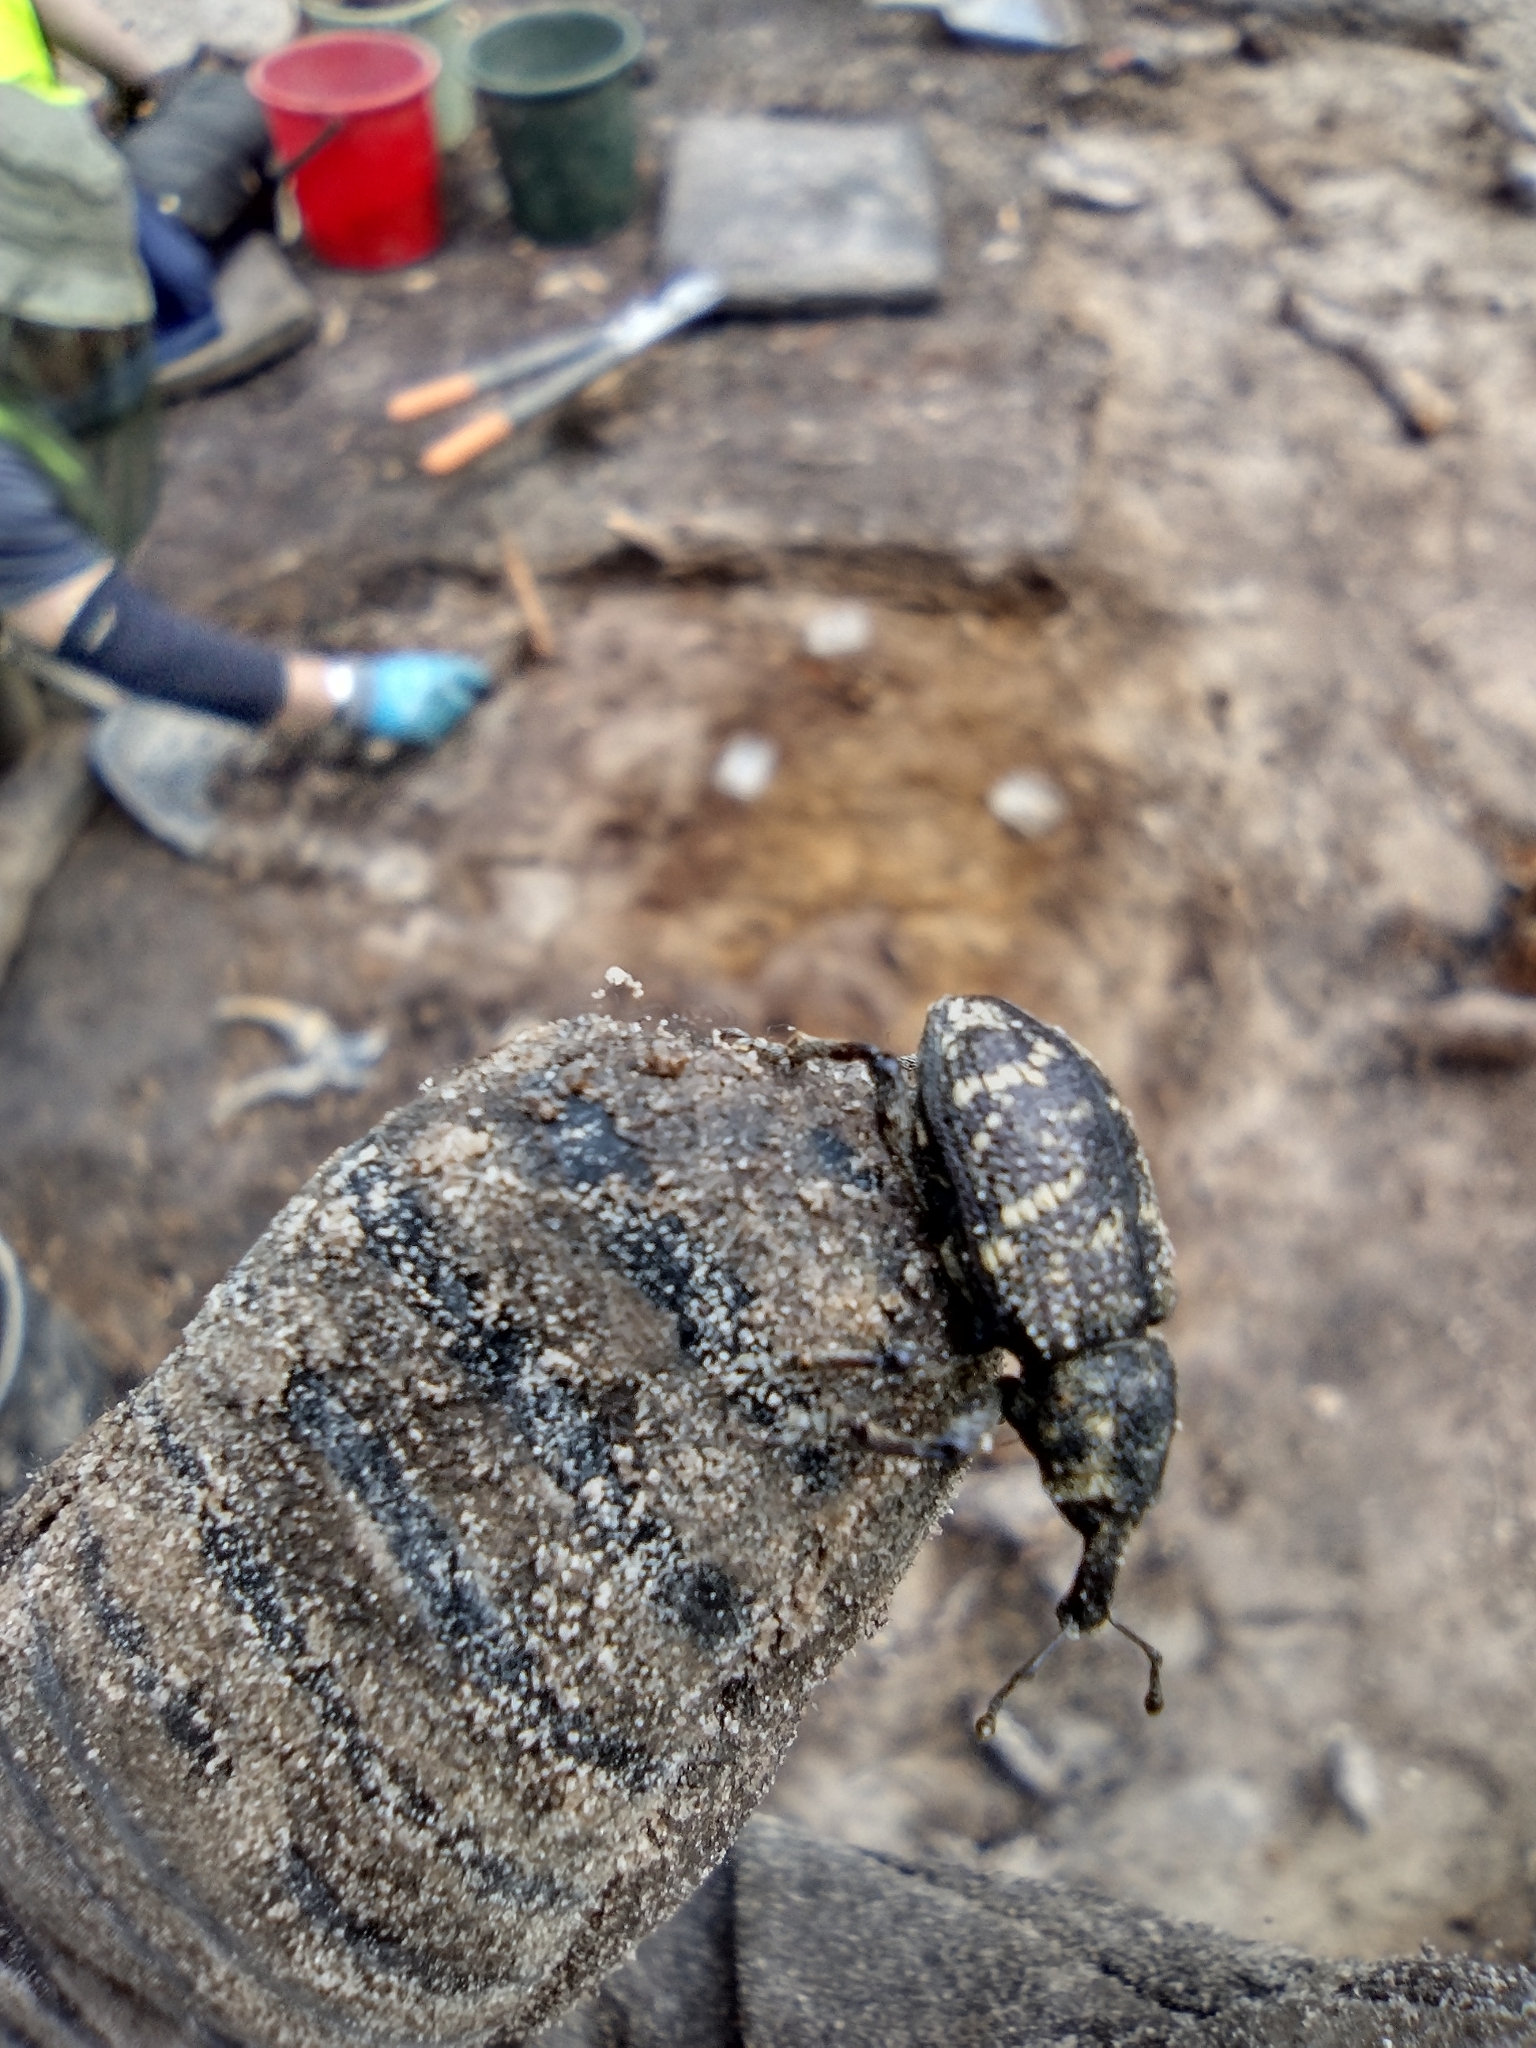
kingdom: Animalia
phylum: Arthropoda
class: Insecta
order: Coleoptera
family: Curculionidae
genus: Hylobius
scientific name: Hylobius abietis
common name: Large pine weevil
